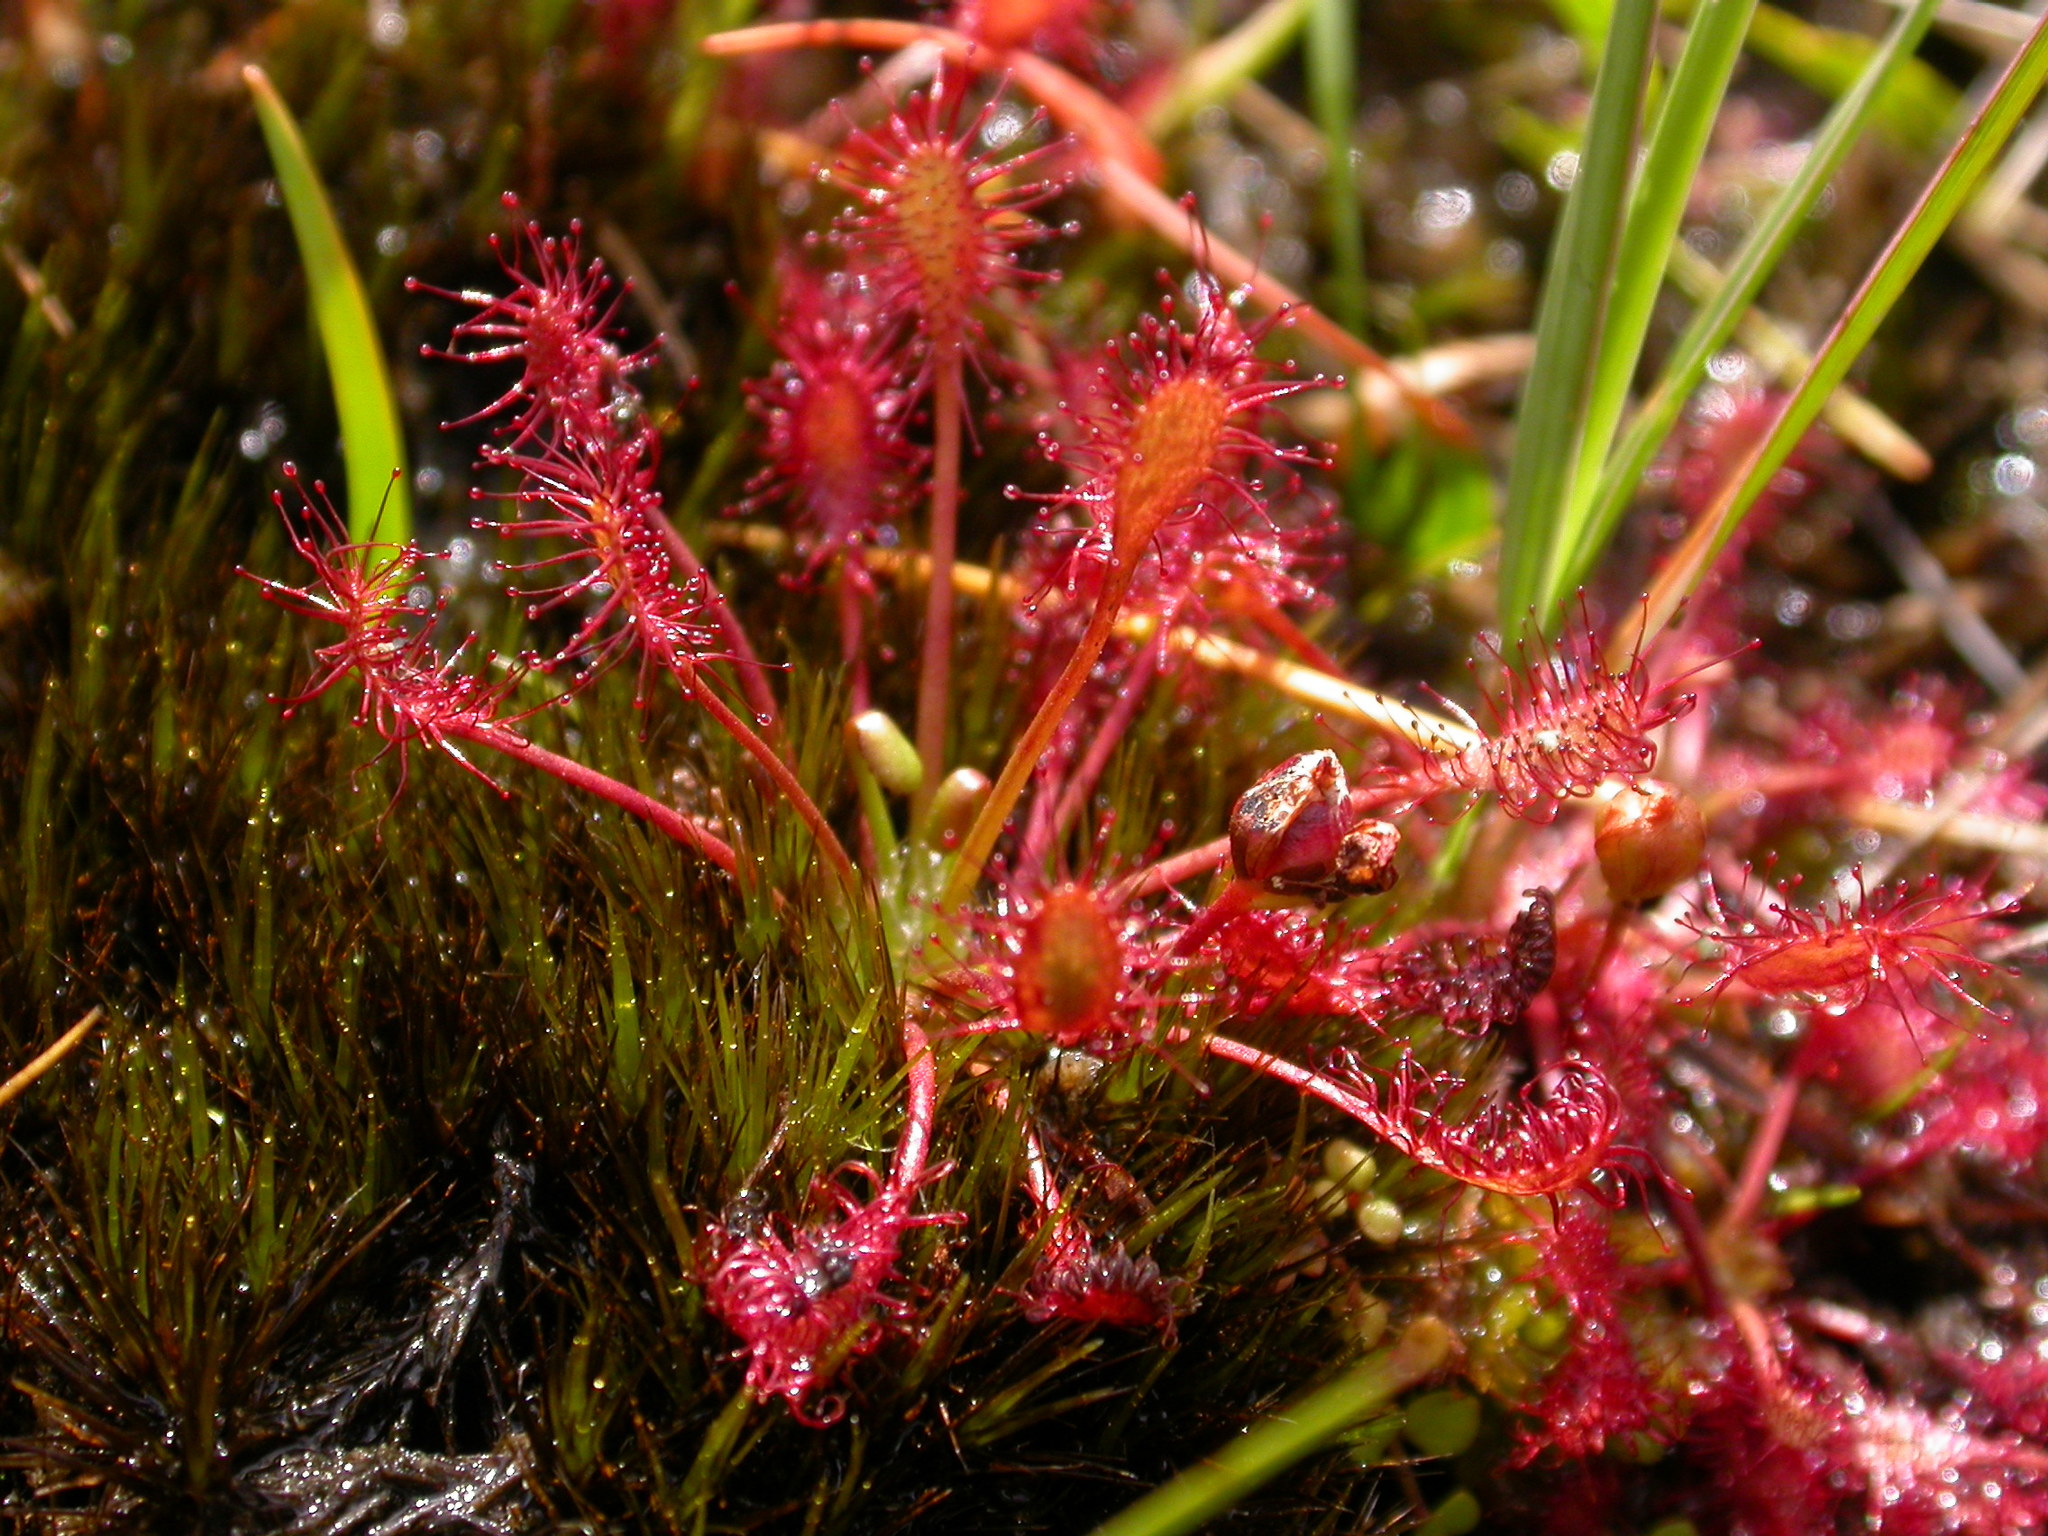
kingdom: Plantae
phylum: Tracheophyta
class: Magnoliopsida
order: Caryophyllales
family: Droseraceae
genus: Drosera
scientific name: Drosera intermedia
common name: Oblong-leaved sundew
